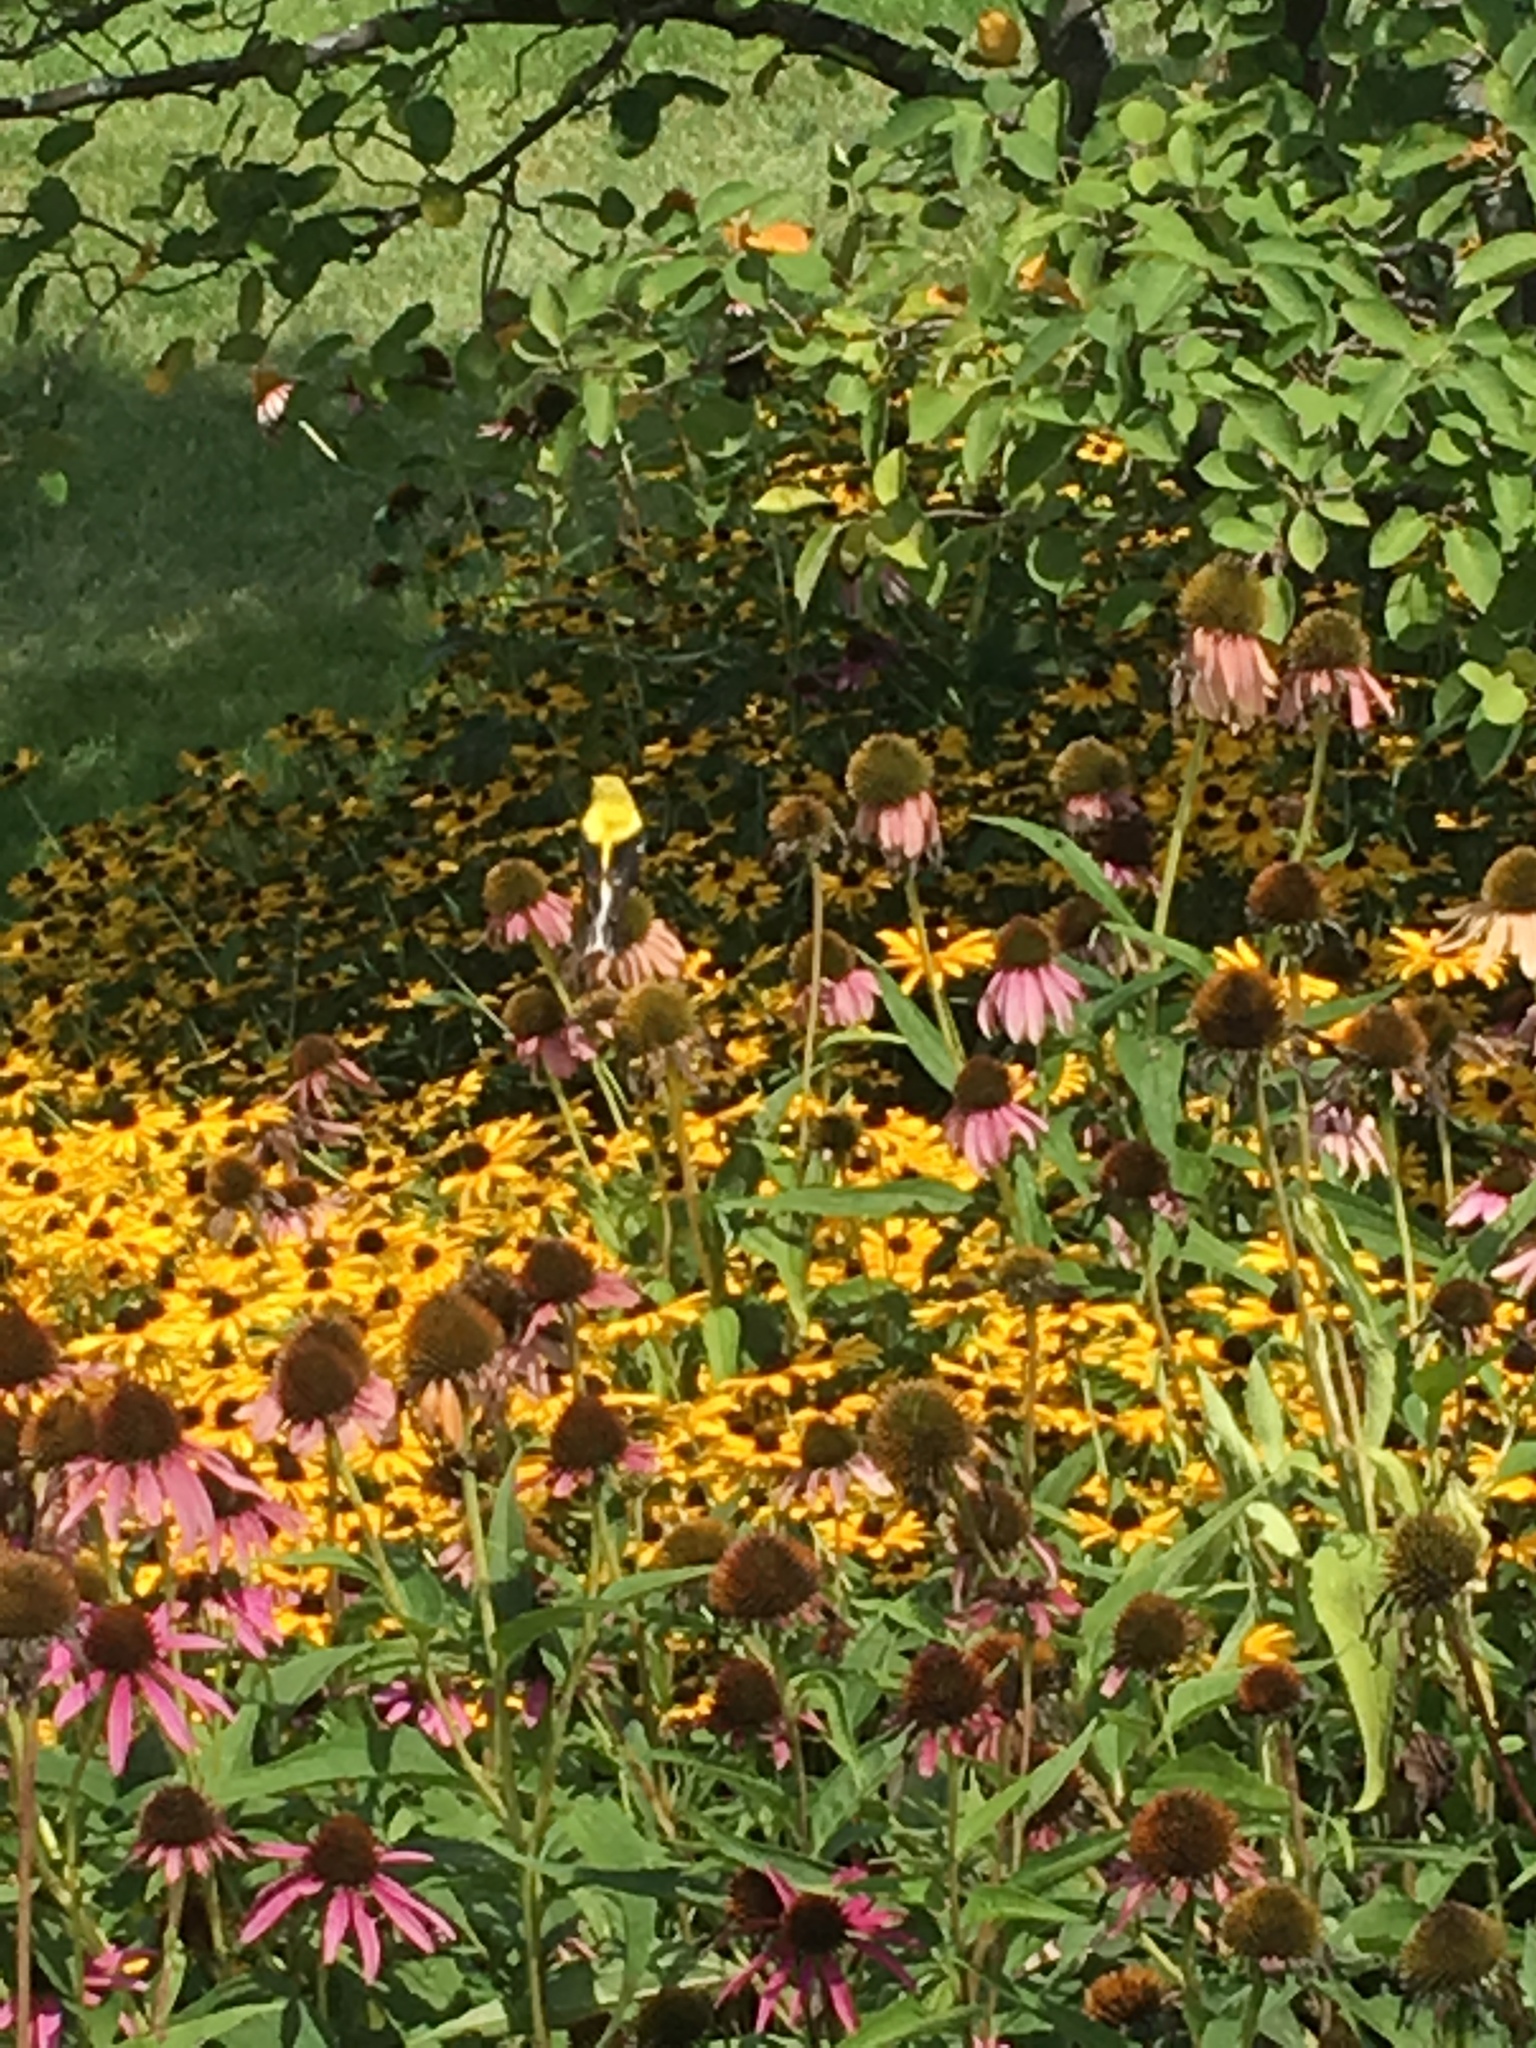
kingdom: Animalia
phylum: Chordata
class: Aves
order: Passeriformes
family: Fringillidae
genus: Spinus
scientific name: Spinus tristis
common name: American goldfinch
